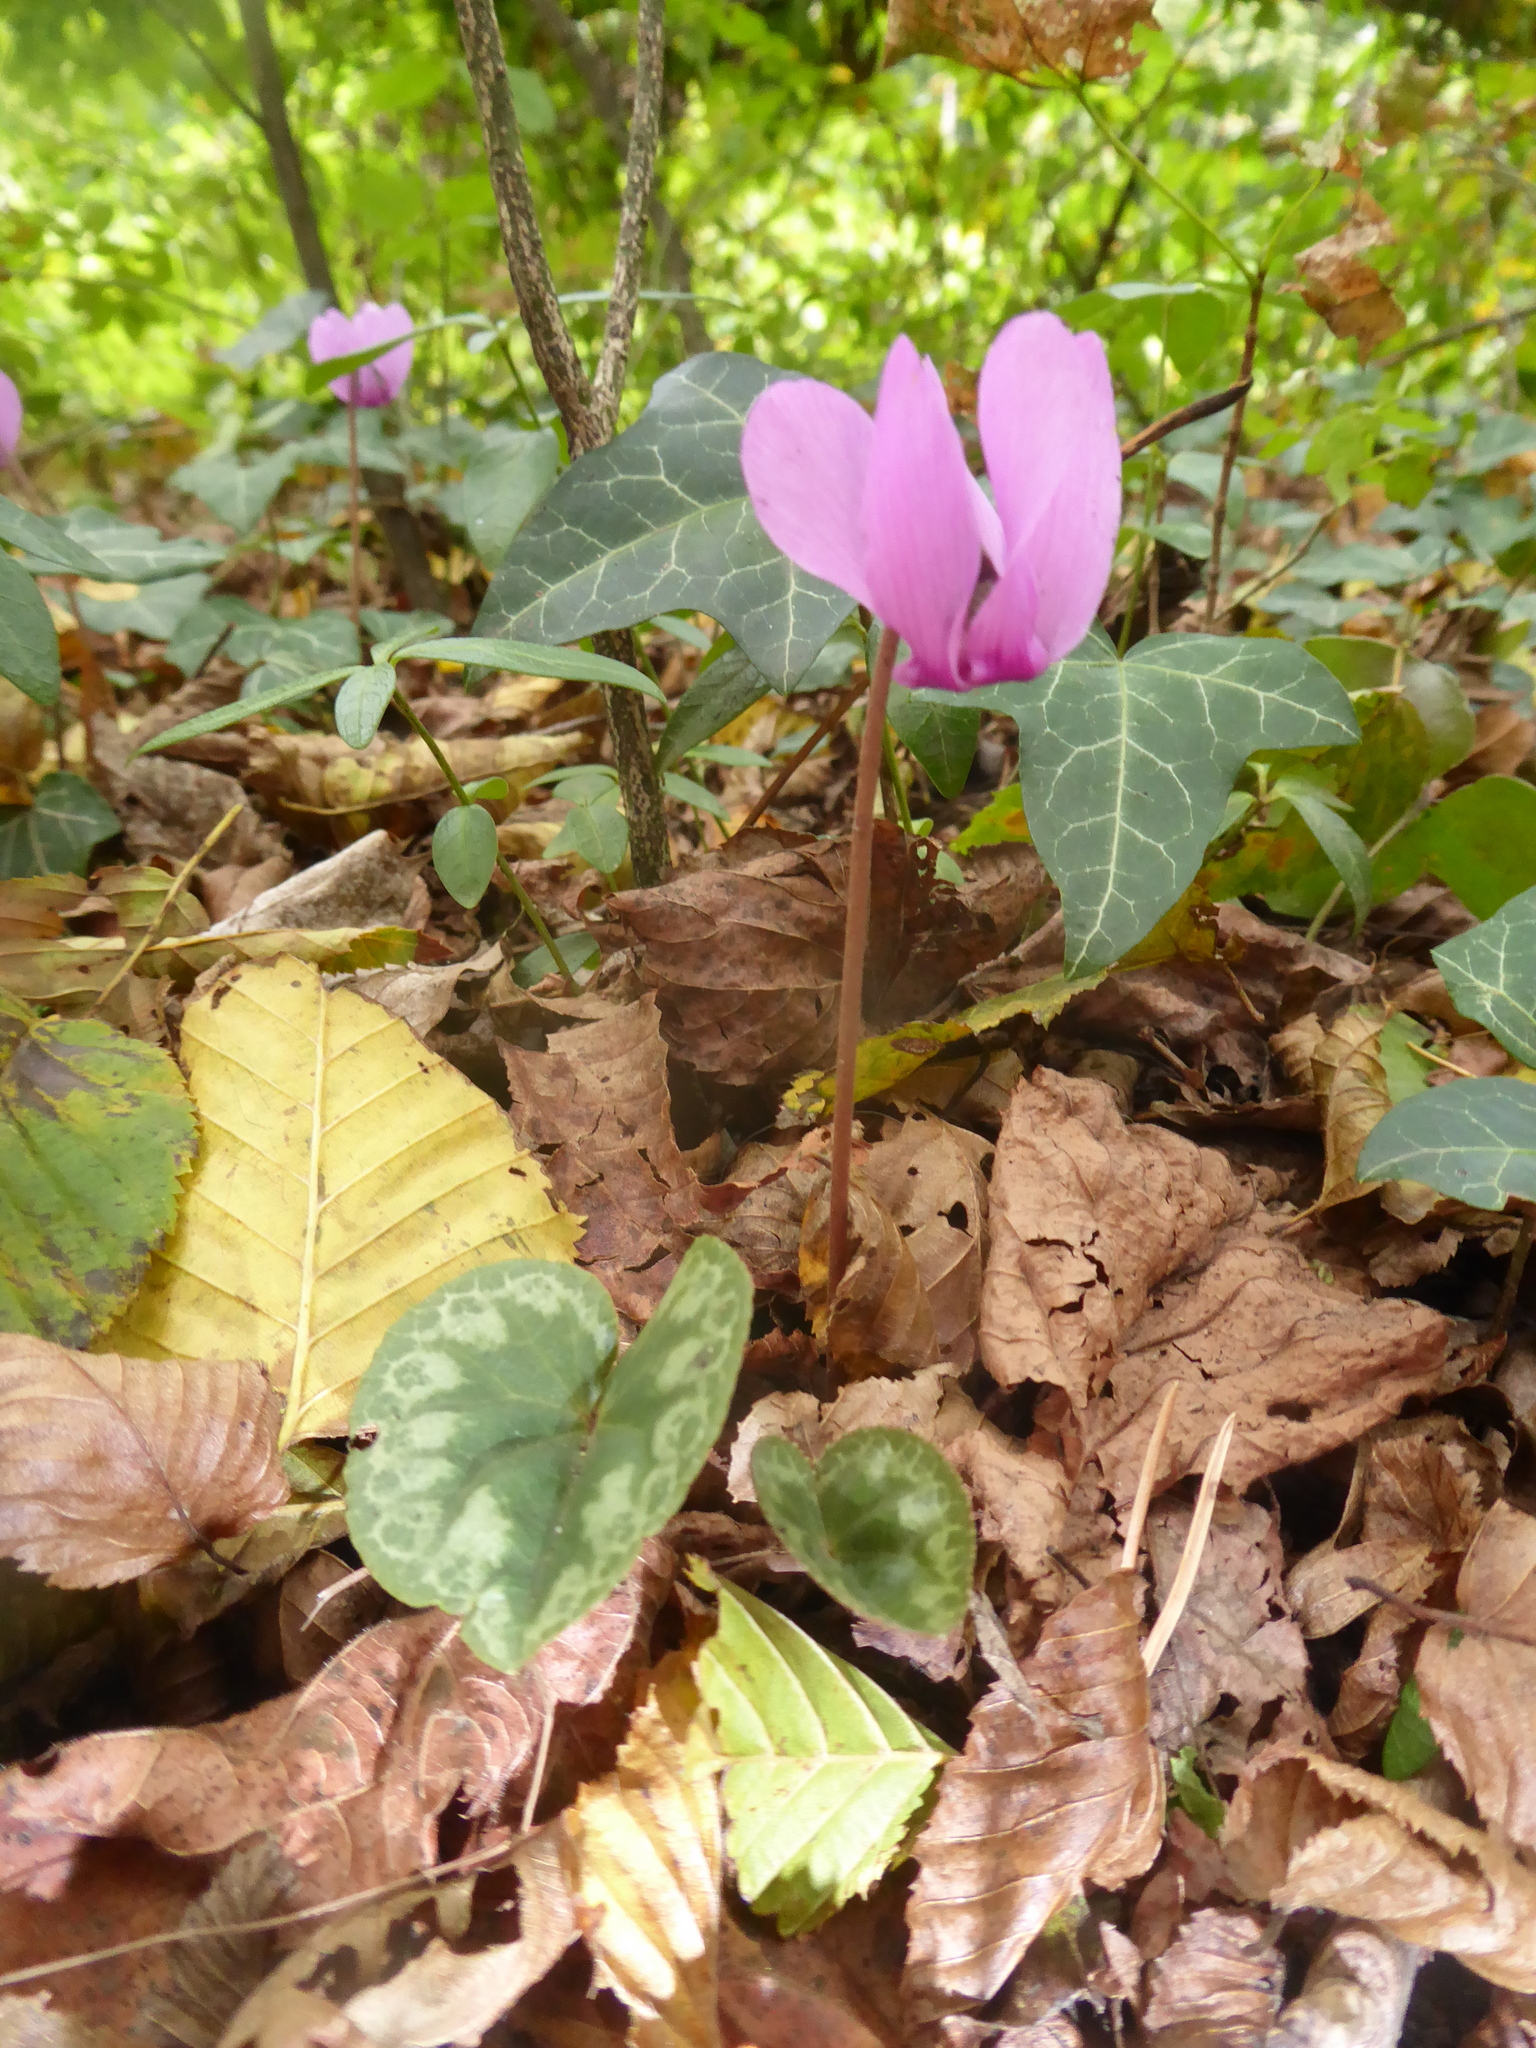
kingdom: Plantae
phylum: Tracheophyta
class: Magnoliopsida
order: Ericales
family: Primulaceae
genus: Cyclamen
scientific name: Cyclamen purpurascens
